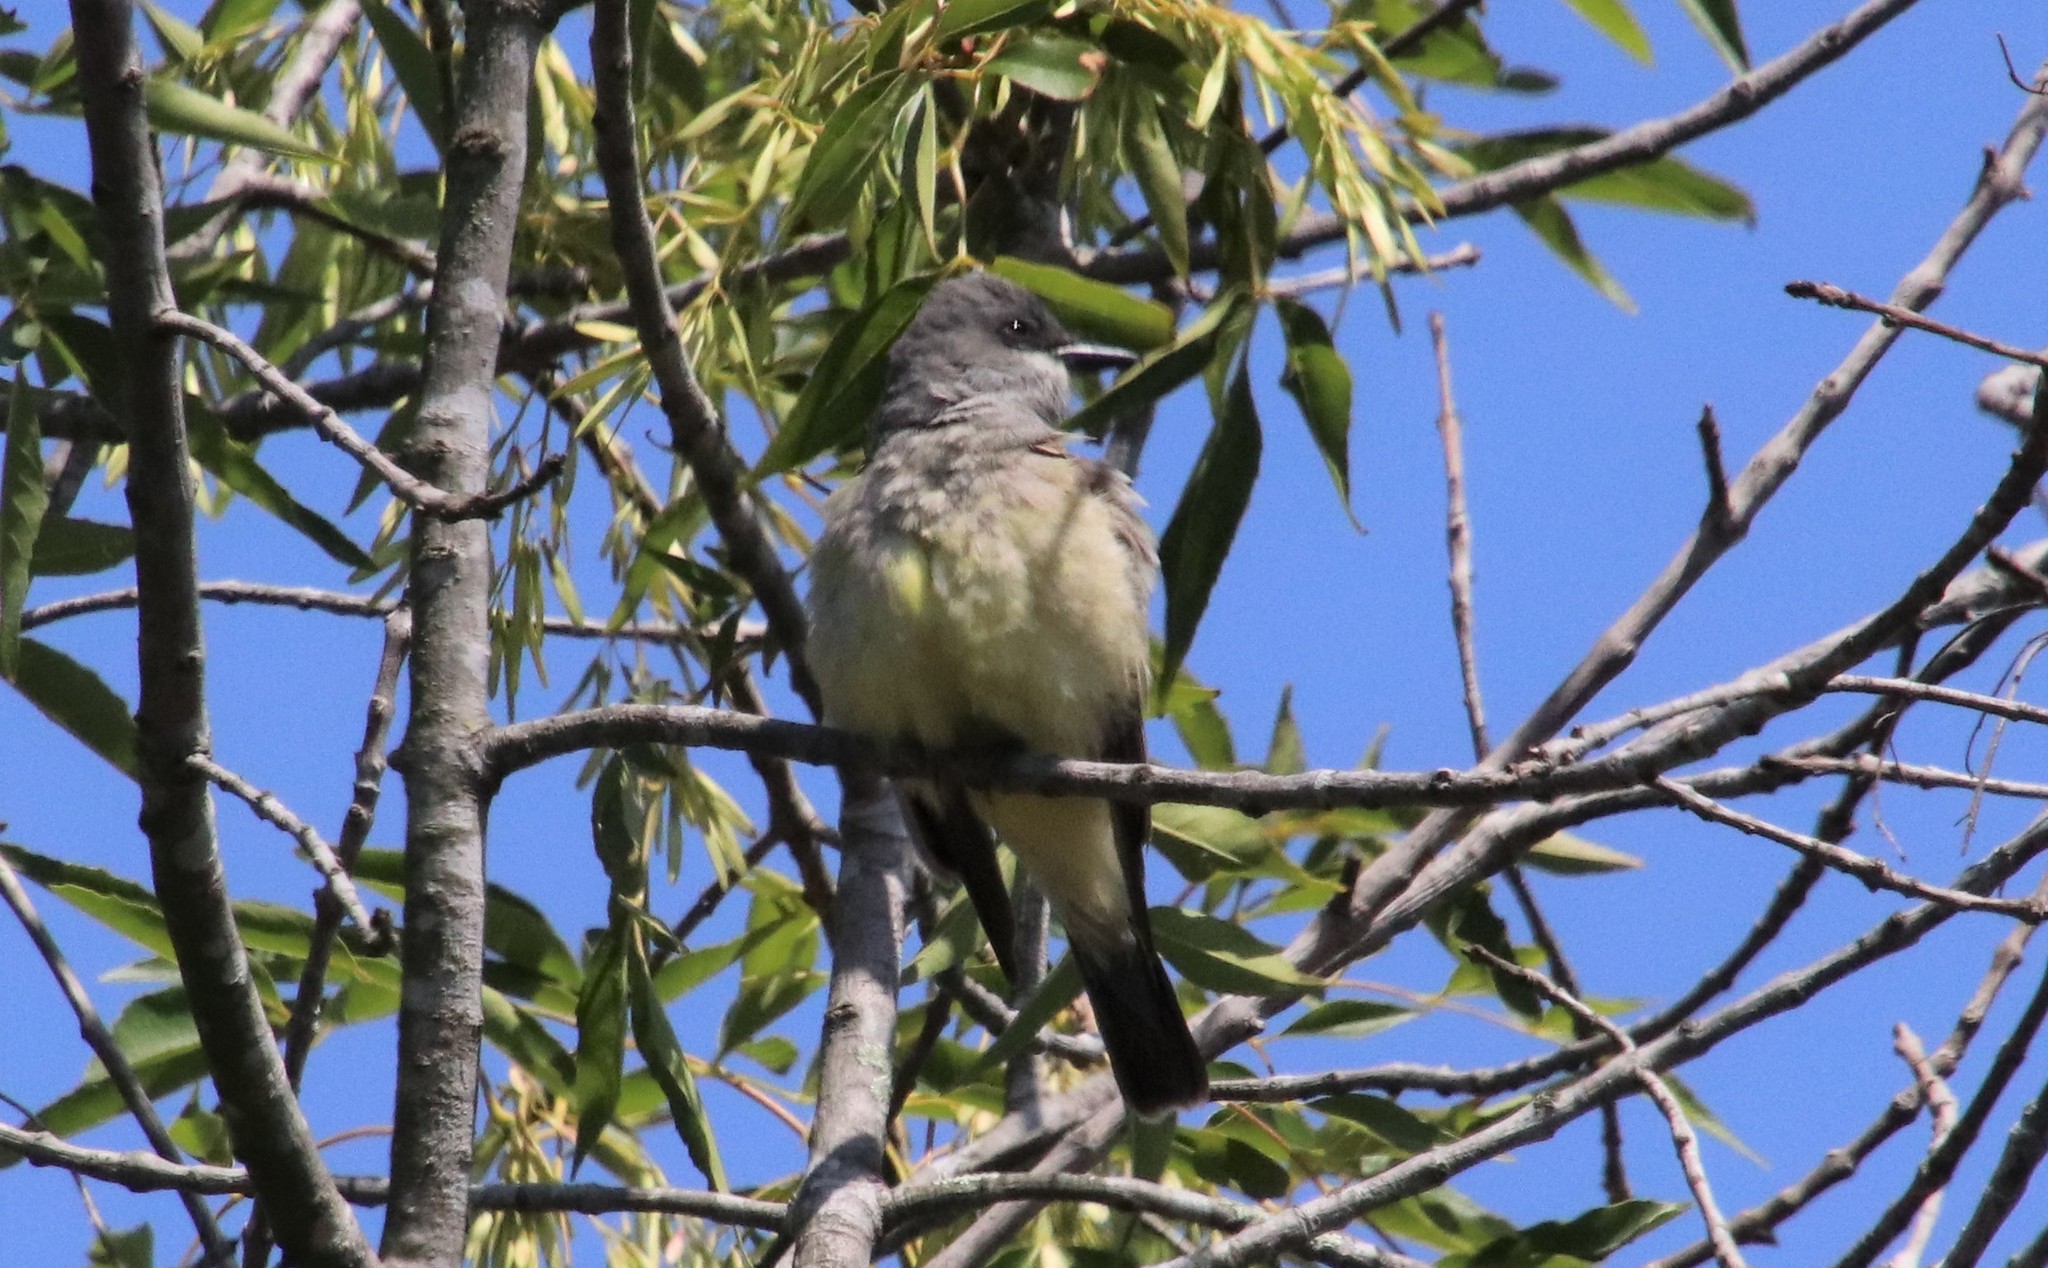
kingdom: Animalia
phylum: Chordata
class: Aves
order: Passeriformes
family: Tyrannidae
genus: Tyrannus
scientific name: Tyrannus vociferans
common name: Cassin's kingbird
